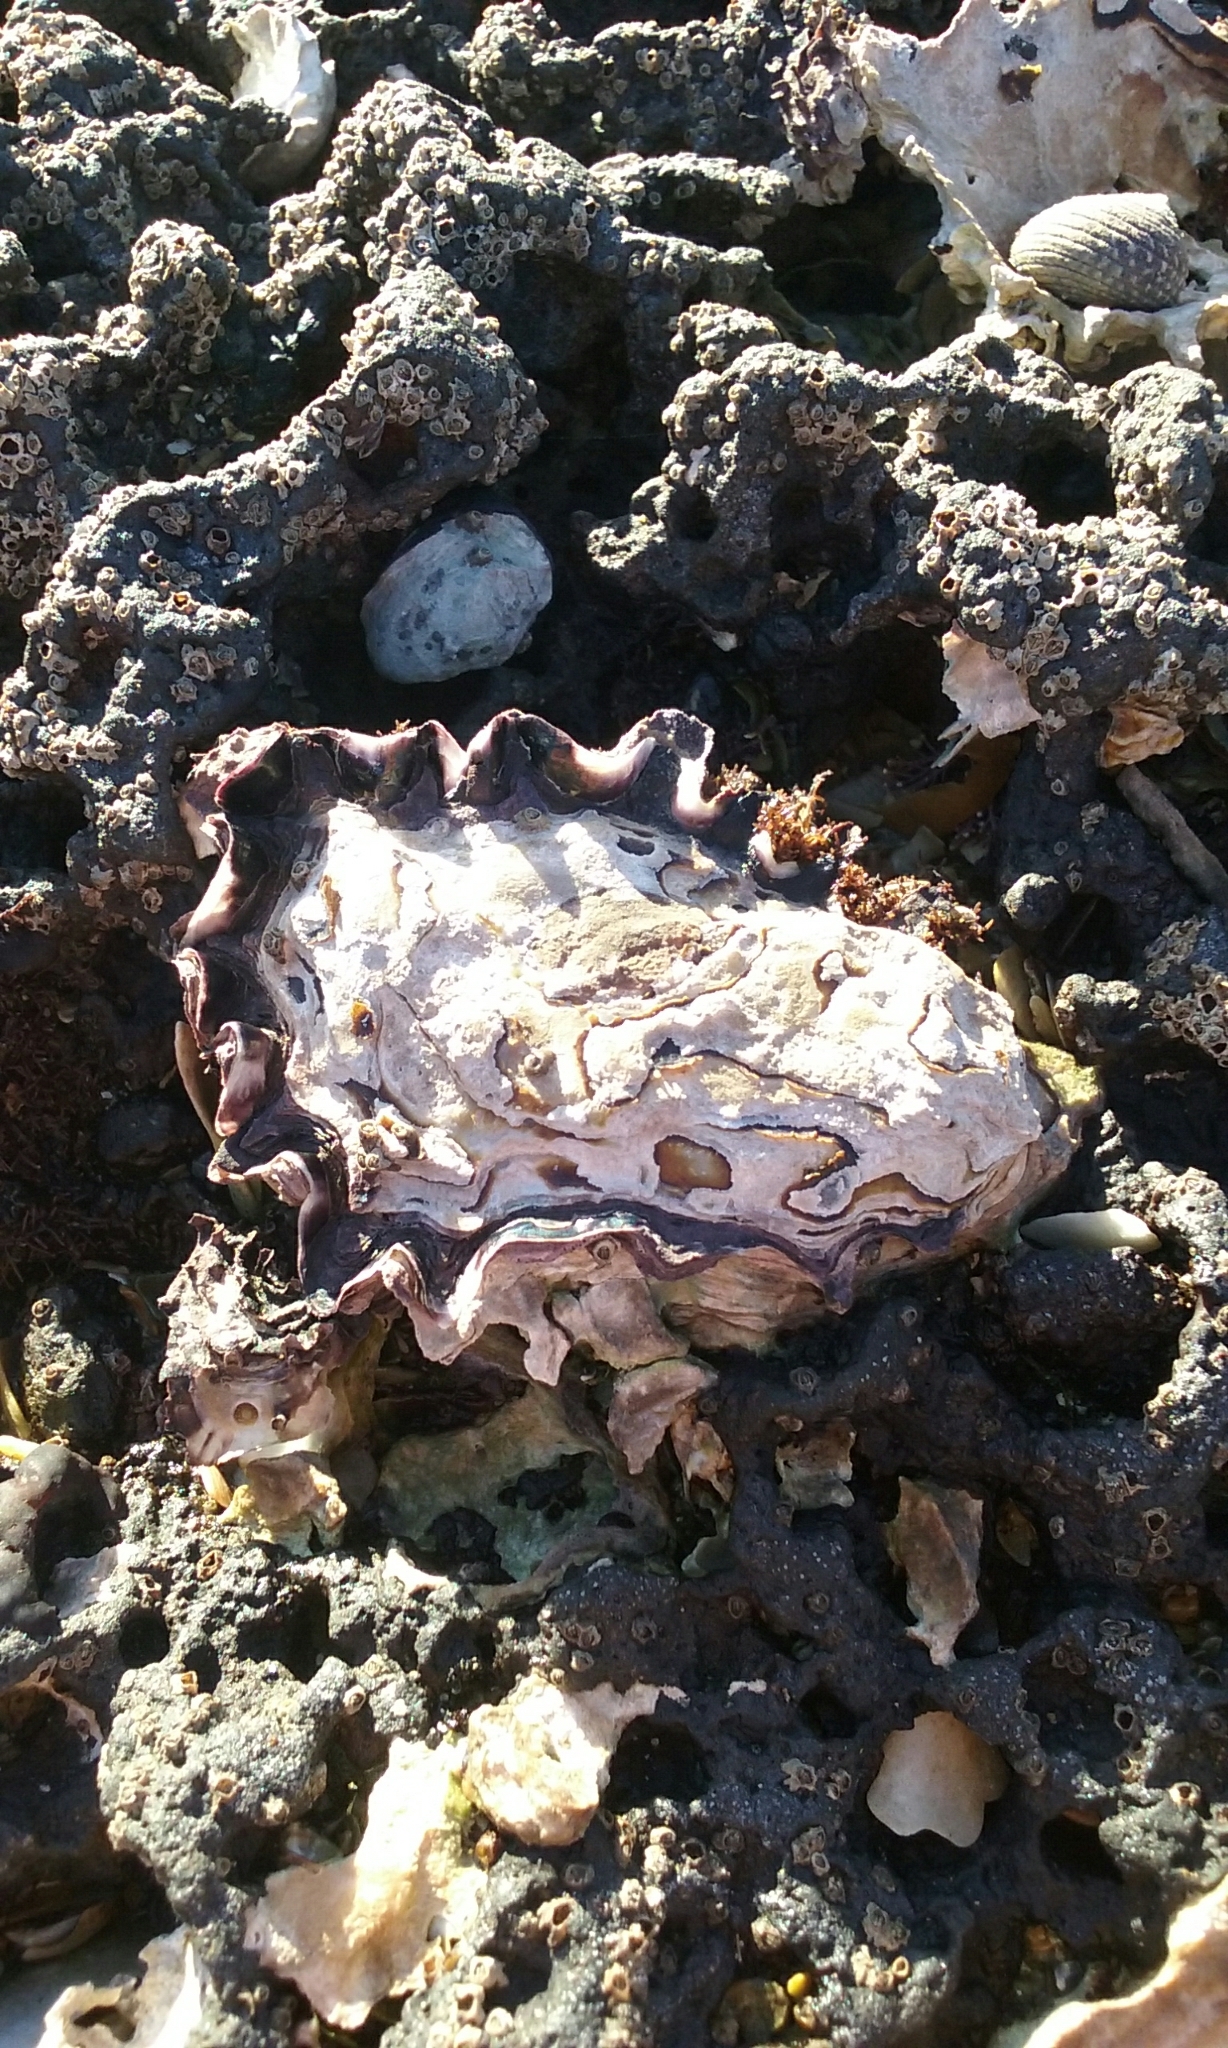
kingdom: Animalia
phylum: Mollusca
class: Bivalvia
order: Ostreida
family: Ostreidae
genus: Saccostrea
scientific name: Saccostrea glomerata
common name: Sydney cupped oyster
